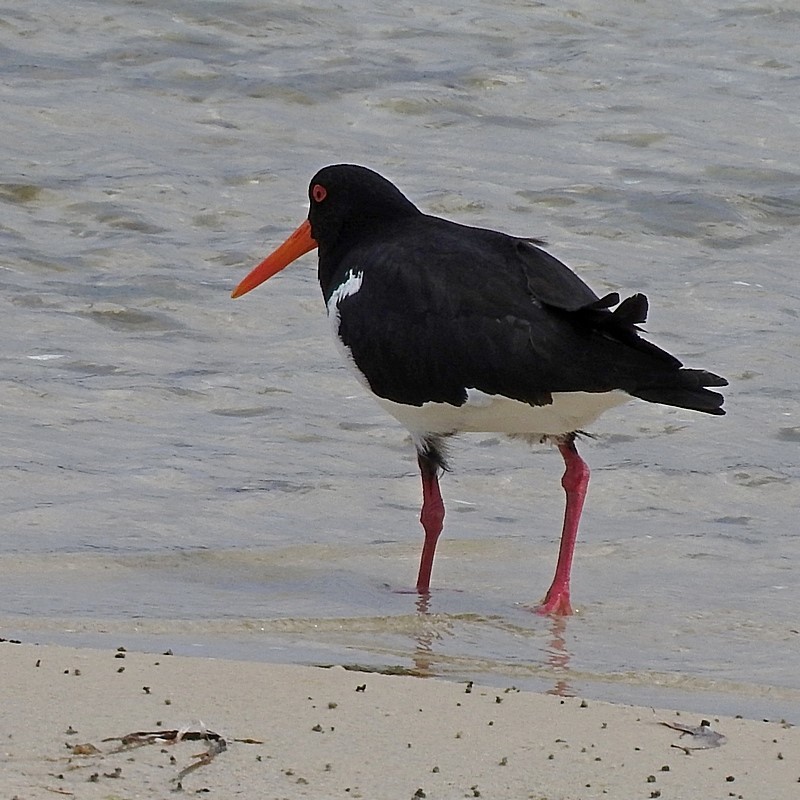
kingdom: Animalia
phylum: Chordata
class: Aves
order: Charadriiformes
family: Haematopodidae
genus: Haematopus
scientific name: Haematopus longirostris
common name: Pied oystercatcher
